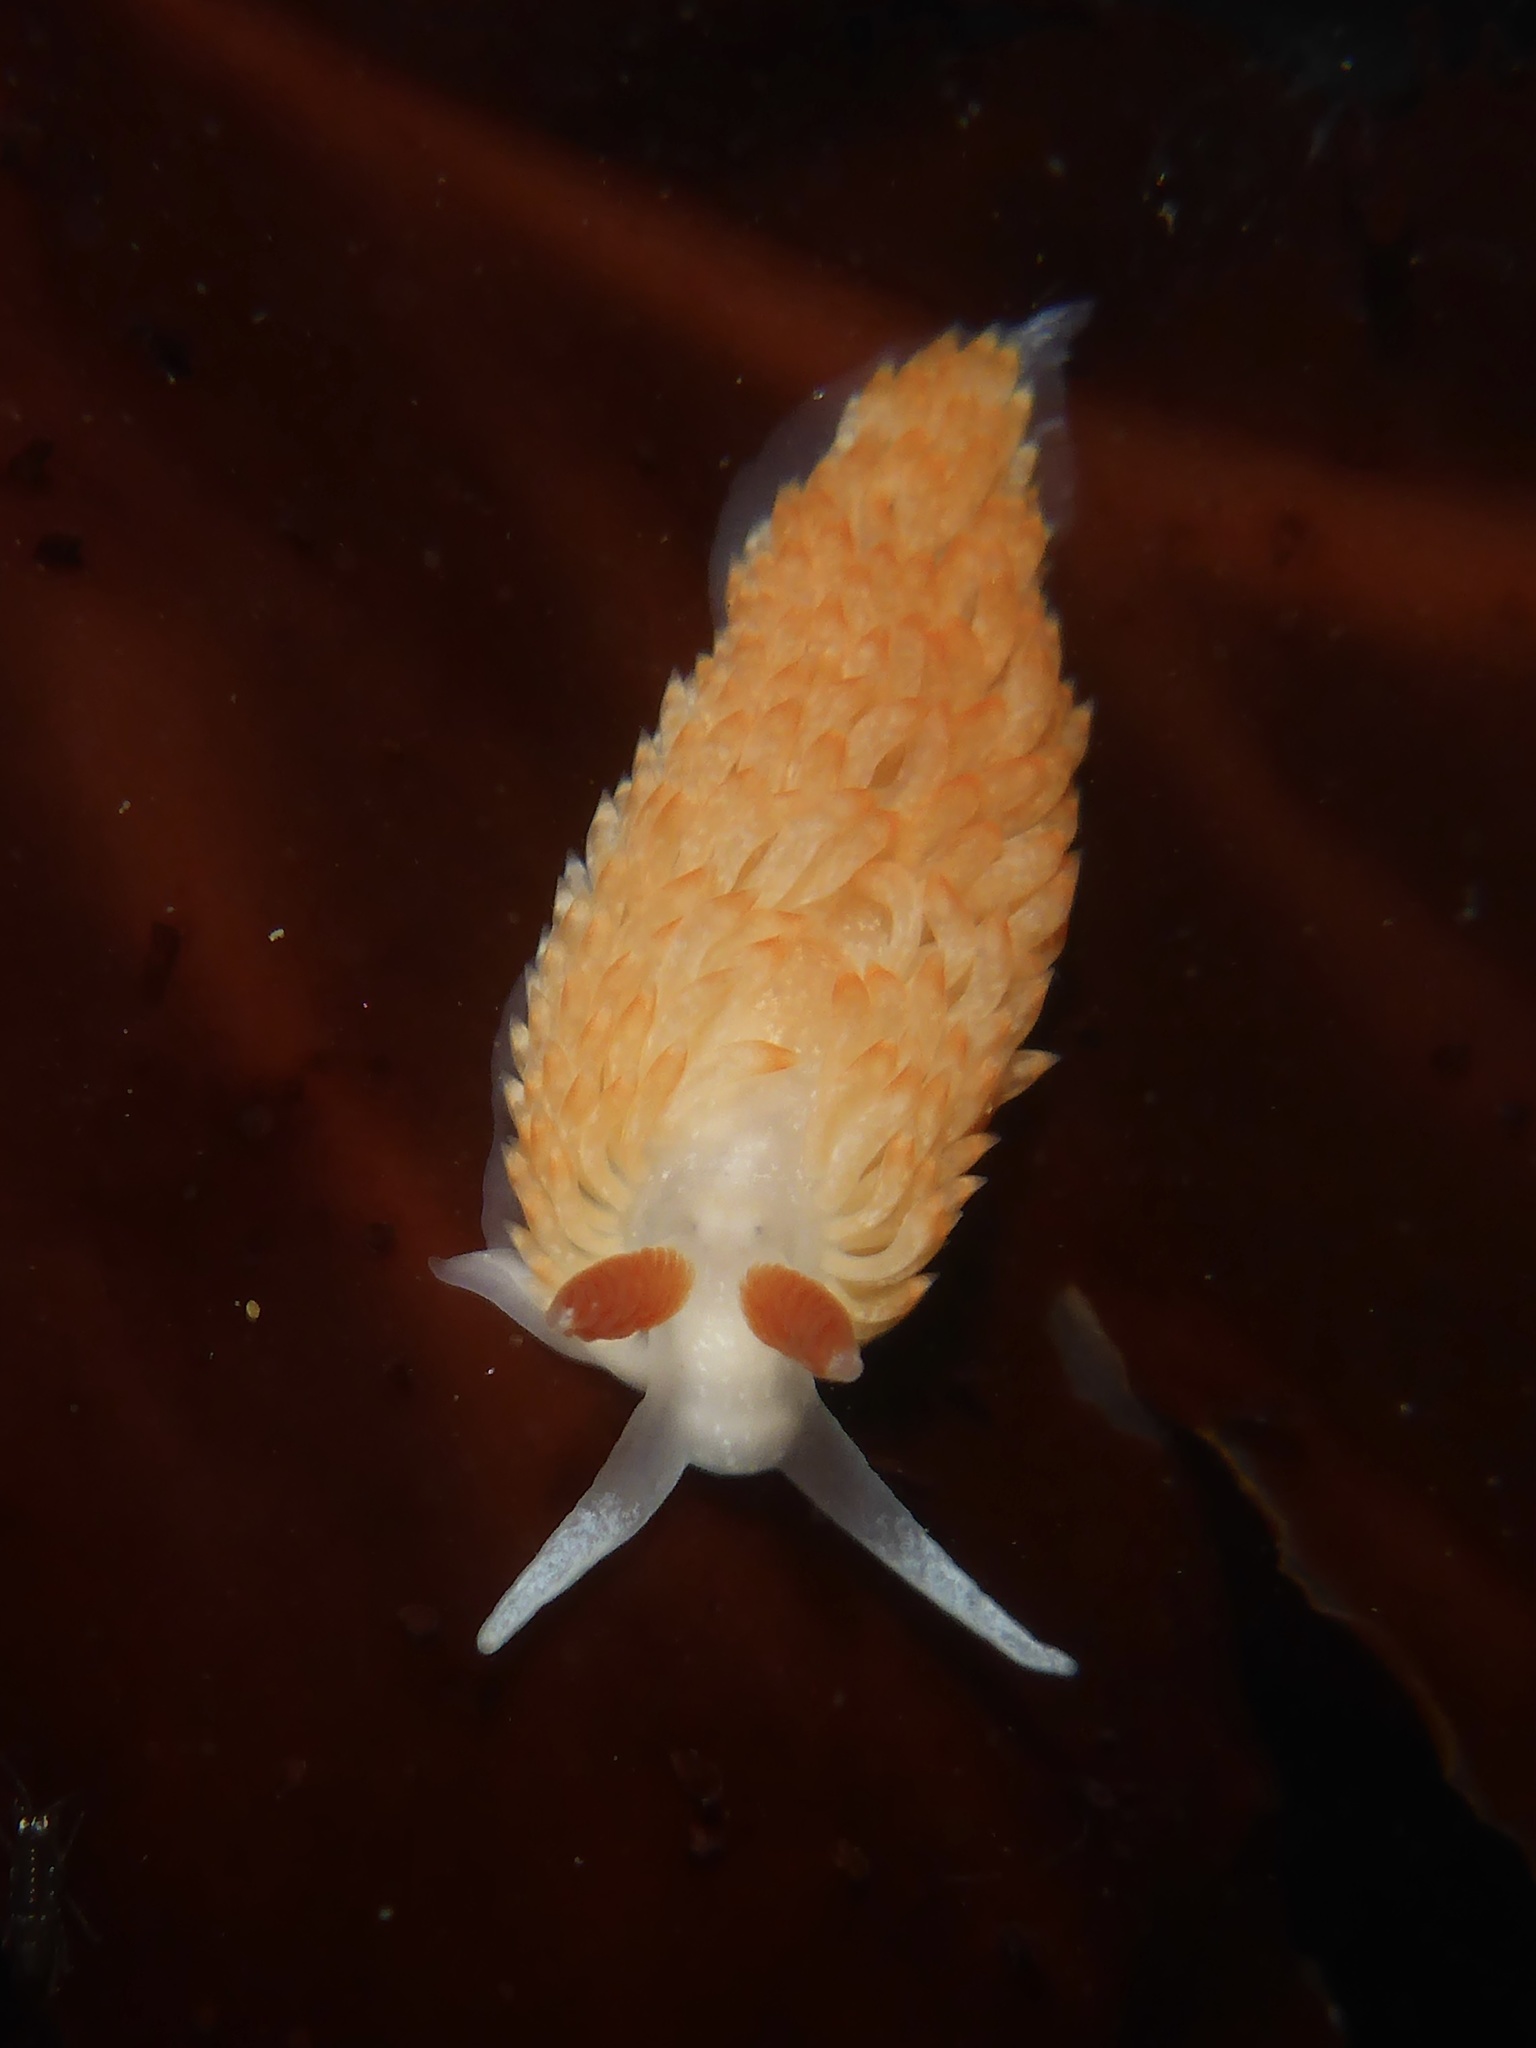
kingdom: Animalia
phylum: Mollusca
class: Gastropoda
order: Nudibranchia
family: Aeolidiidae
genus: Anteaeolidiella
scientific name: Anteaeolidiella oliviae
